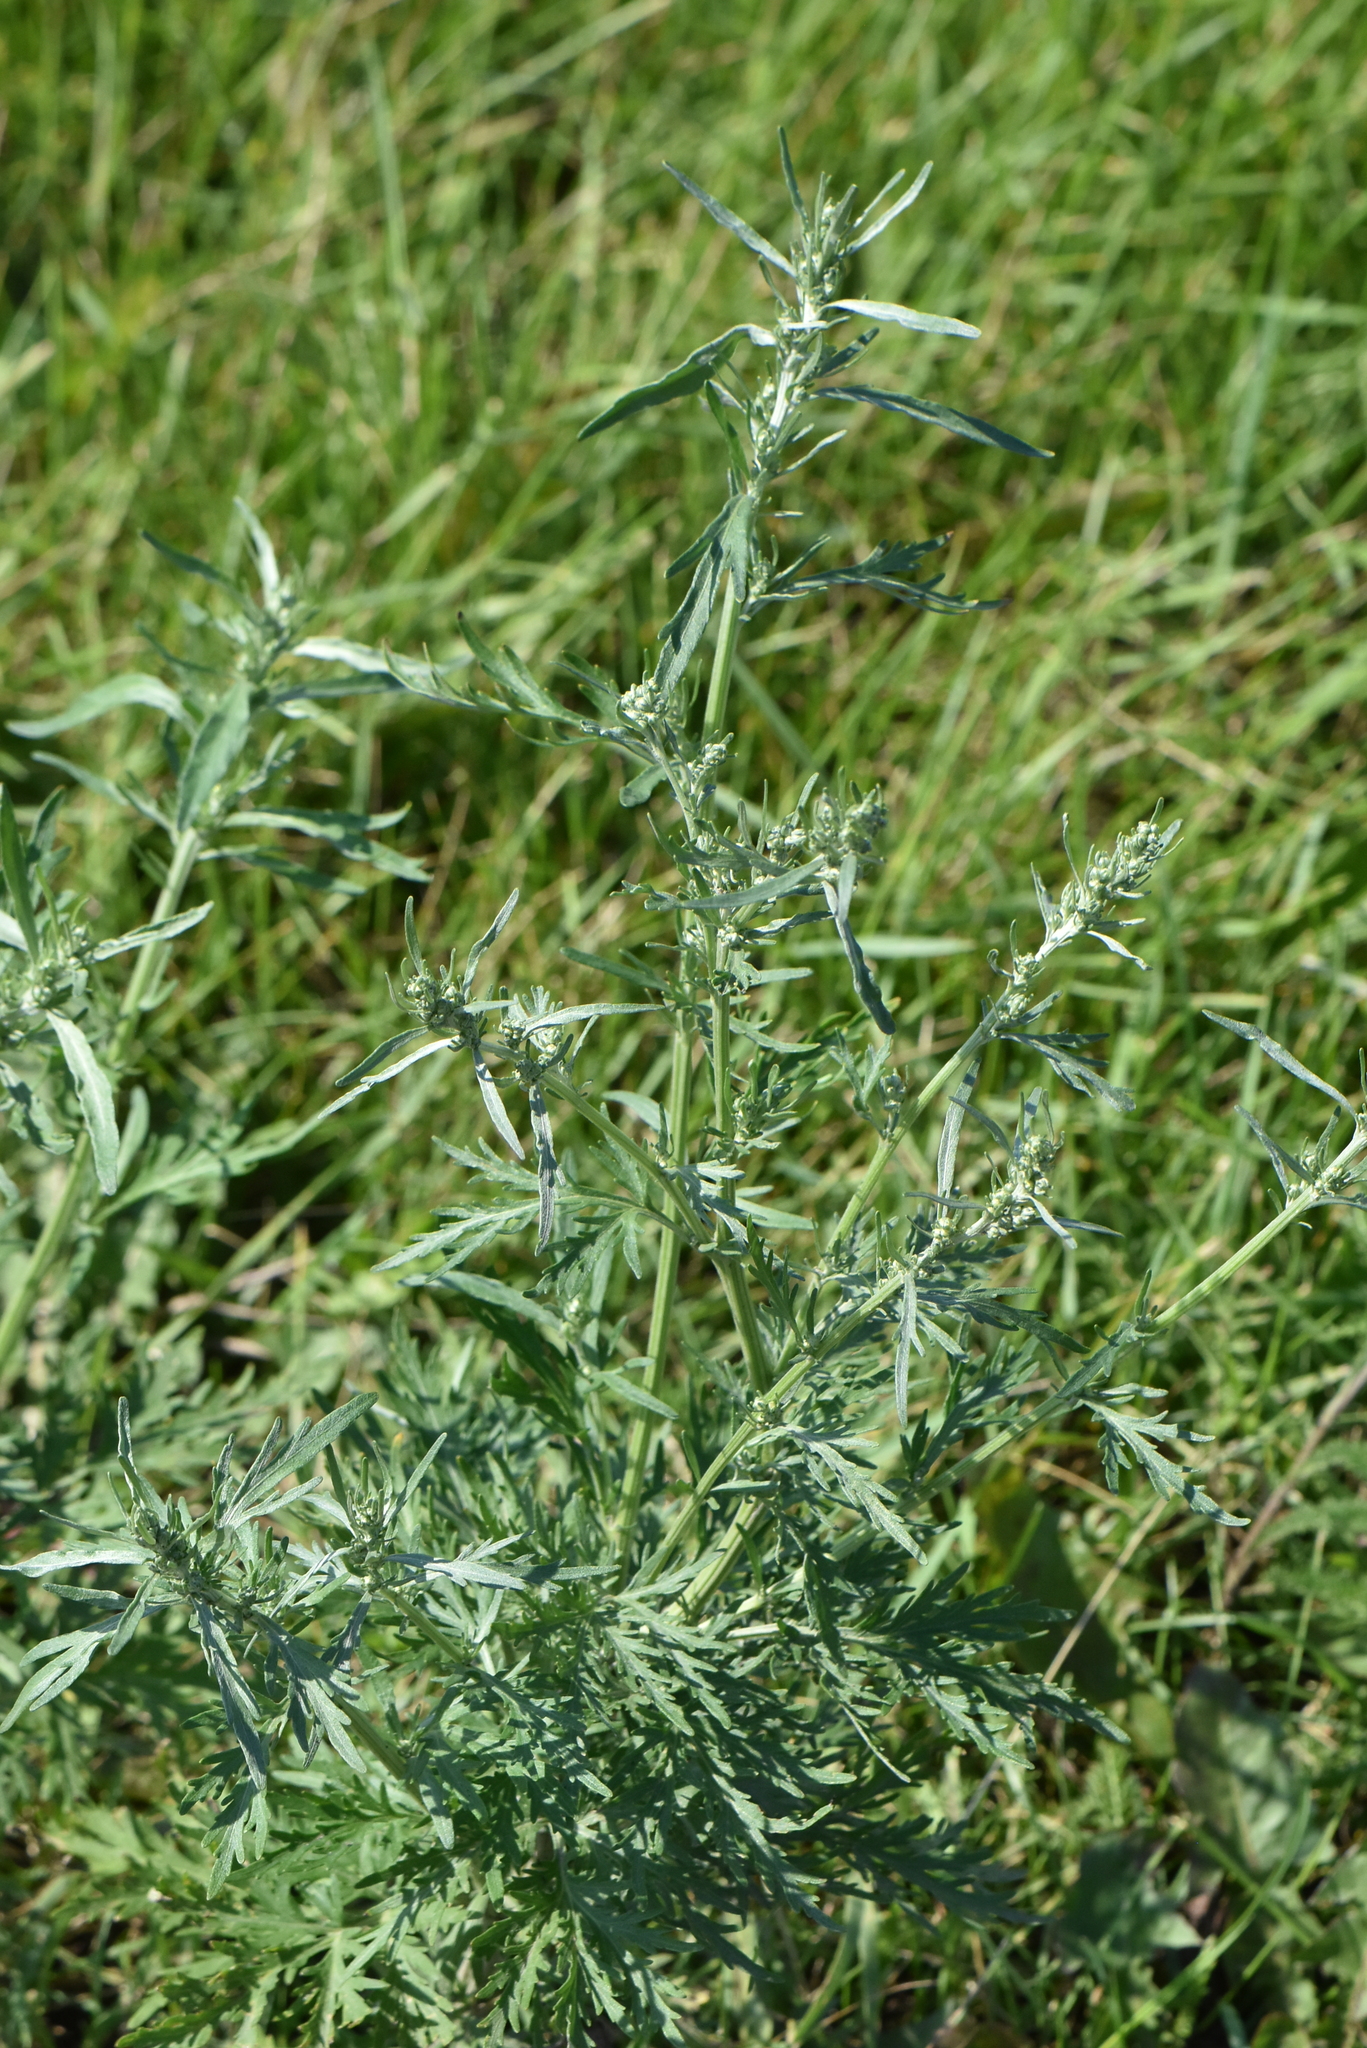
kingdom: Plantae
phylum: Tracheophyta
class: Magnoliopsida
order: Asterales
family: Asteraceae
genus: Artemisia
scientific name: Artemisia sieversiana
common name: Sieversian wormwood
